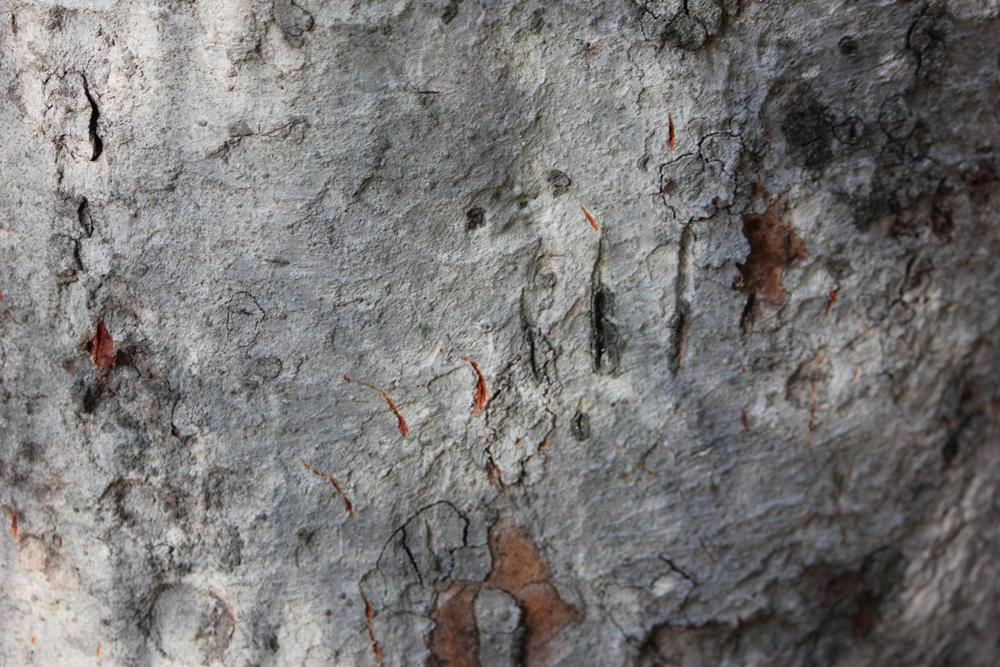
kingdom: Animalia
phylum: Chordata
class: Mammalia
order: Carnivora
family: Felidae
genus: Panthera
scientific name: Panthera pardus
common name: Leopard
